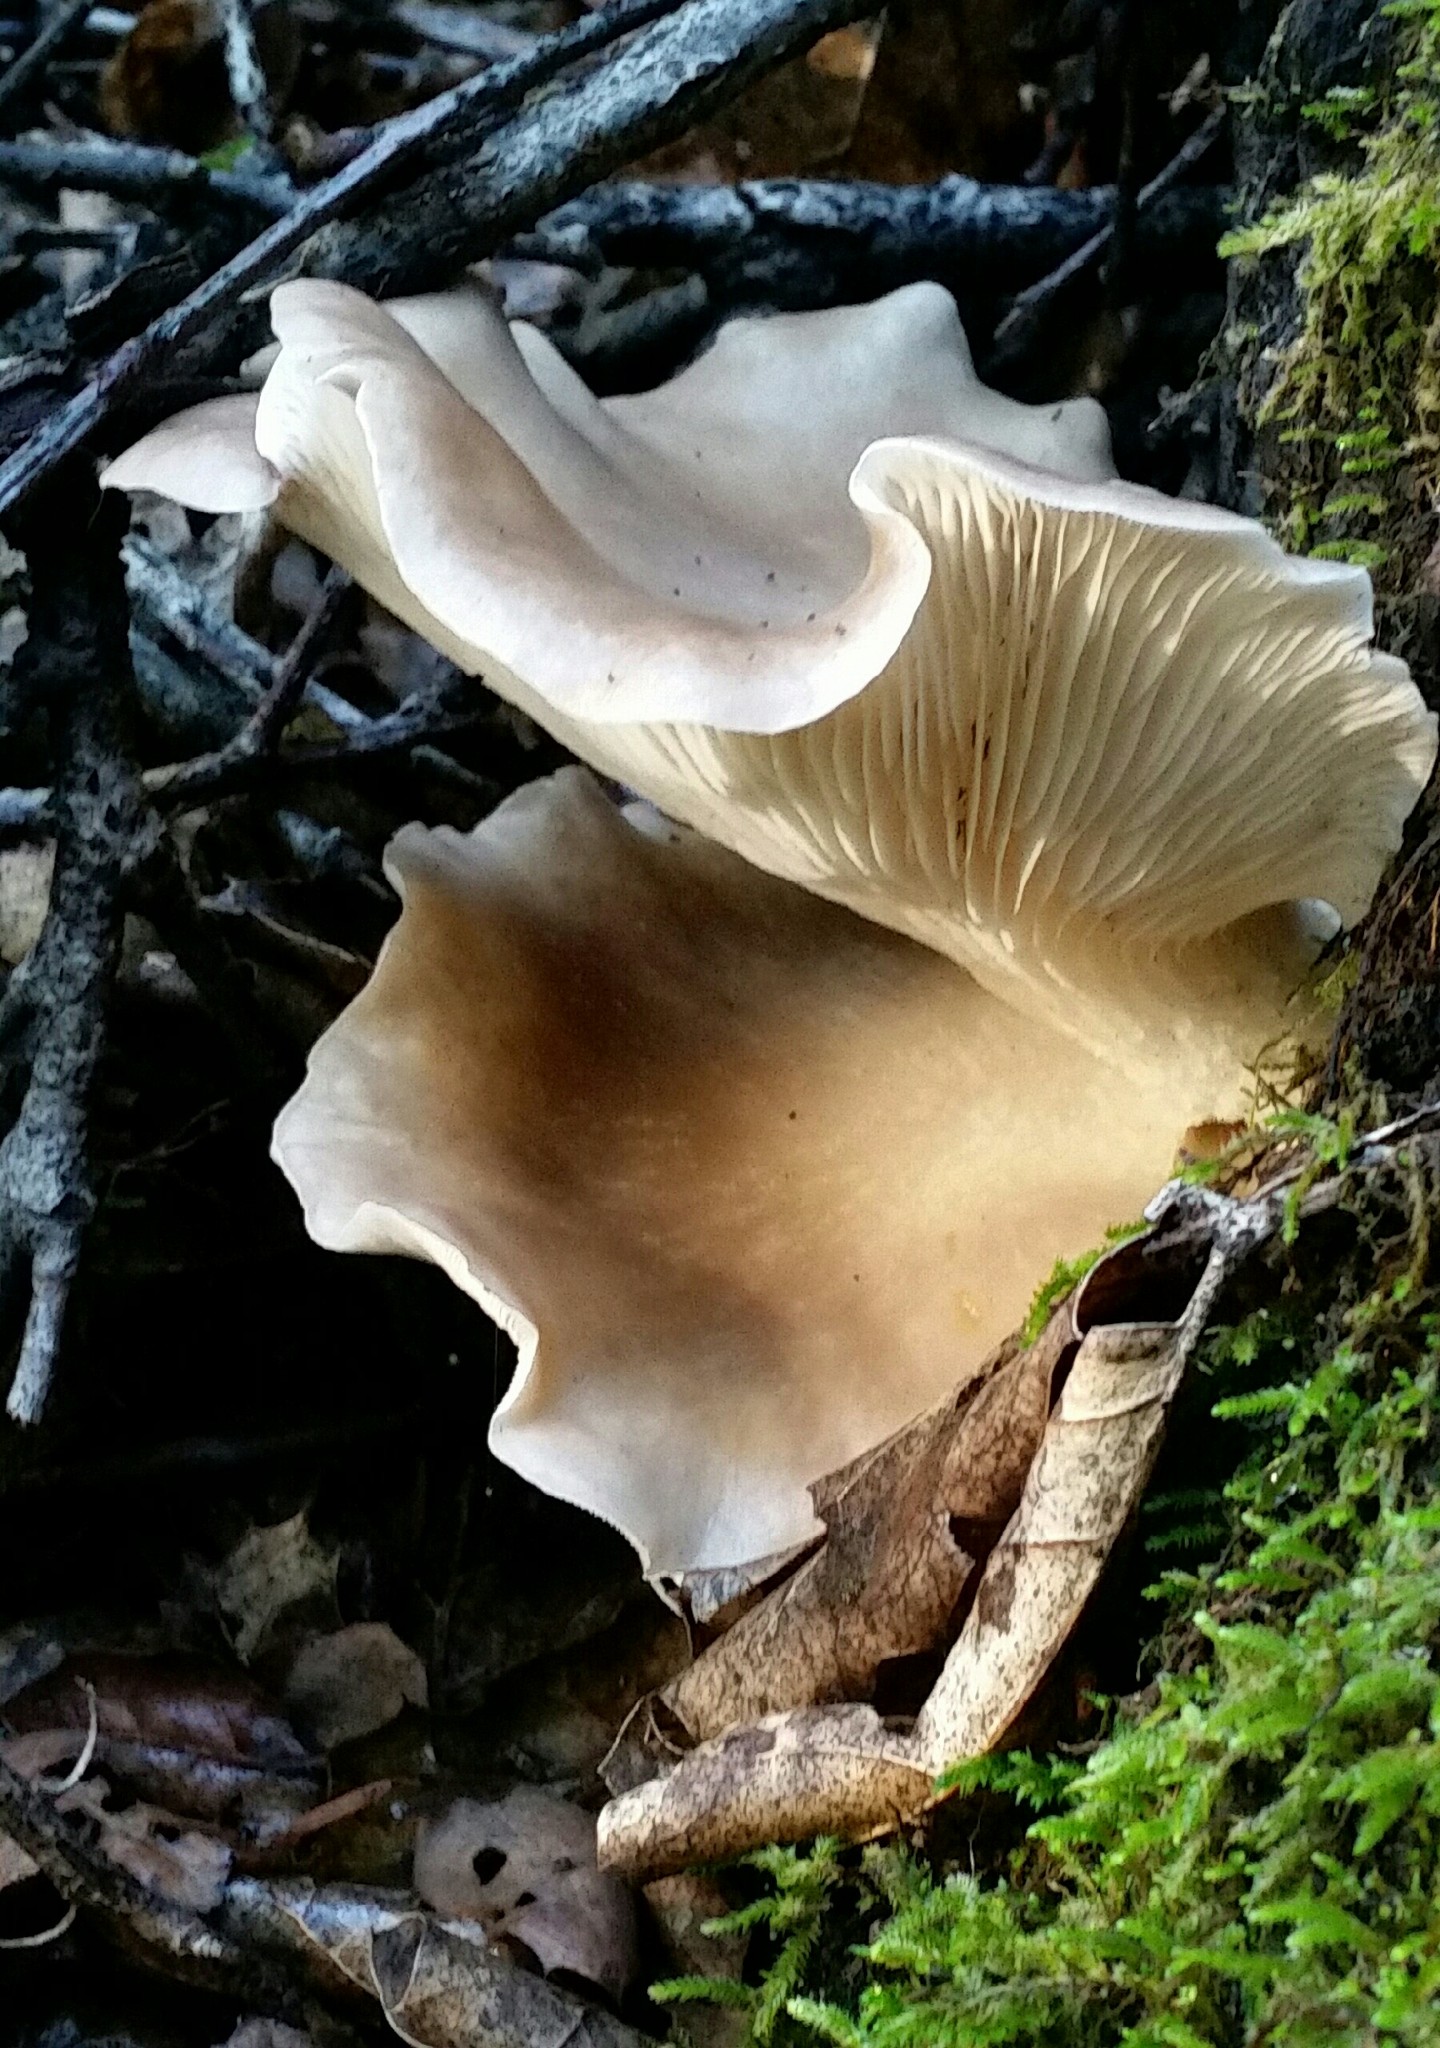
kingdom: Fungi
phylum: Basidiomycota
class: Agaricomycetes
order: Agaricales
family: Pleurotaceae
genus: Pleurotus
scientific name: Pleurotus ostreatus
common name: Oyster mushroom
